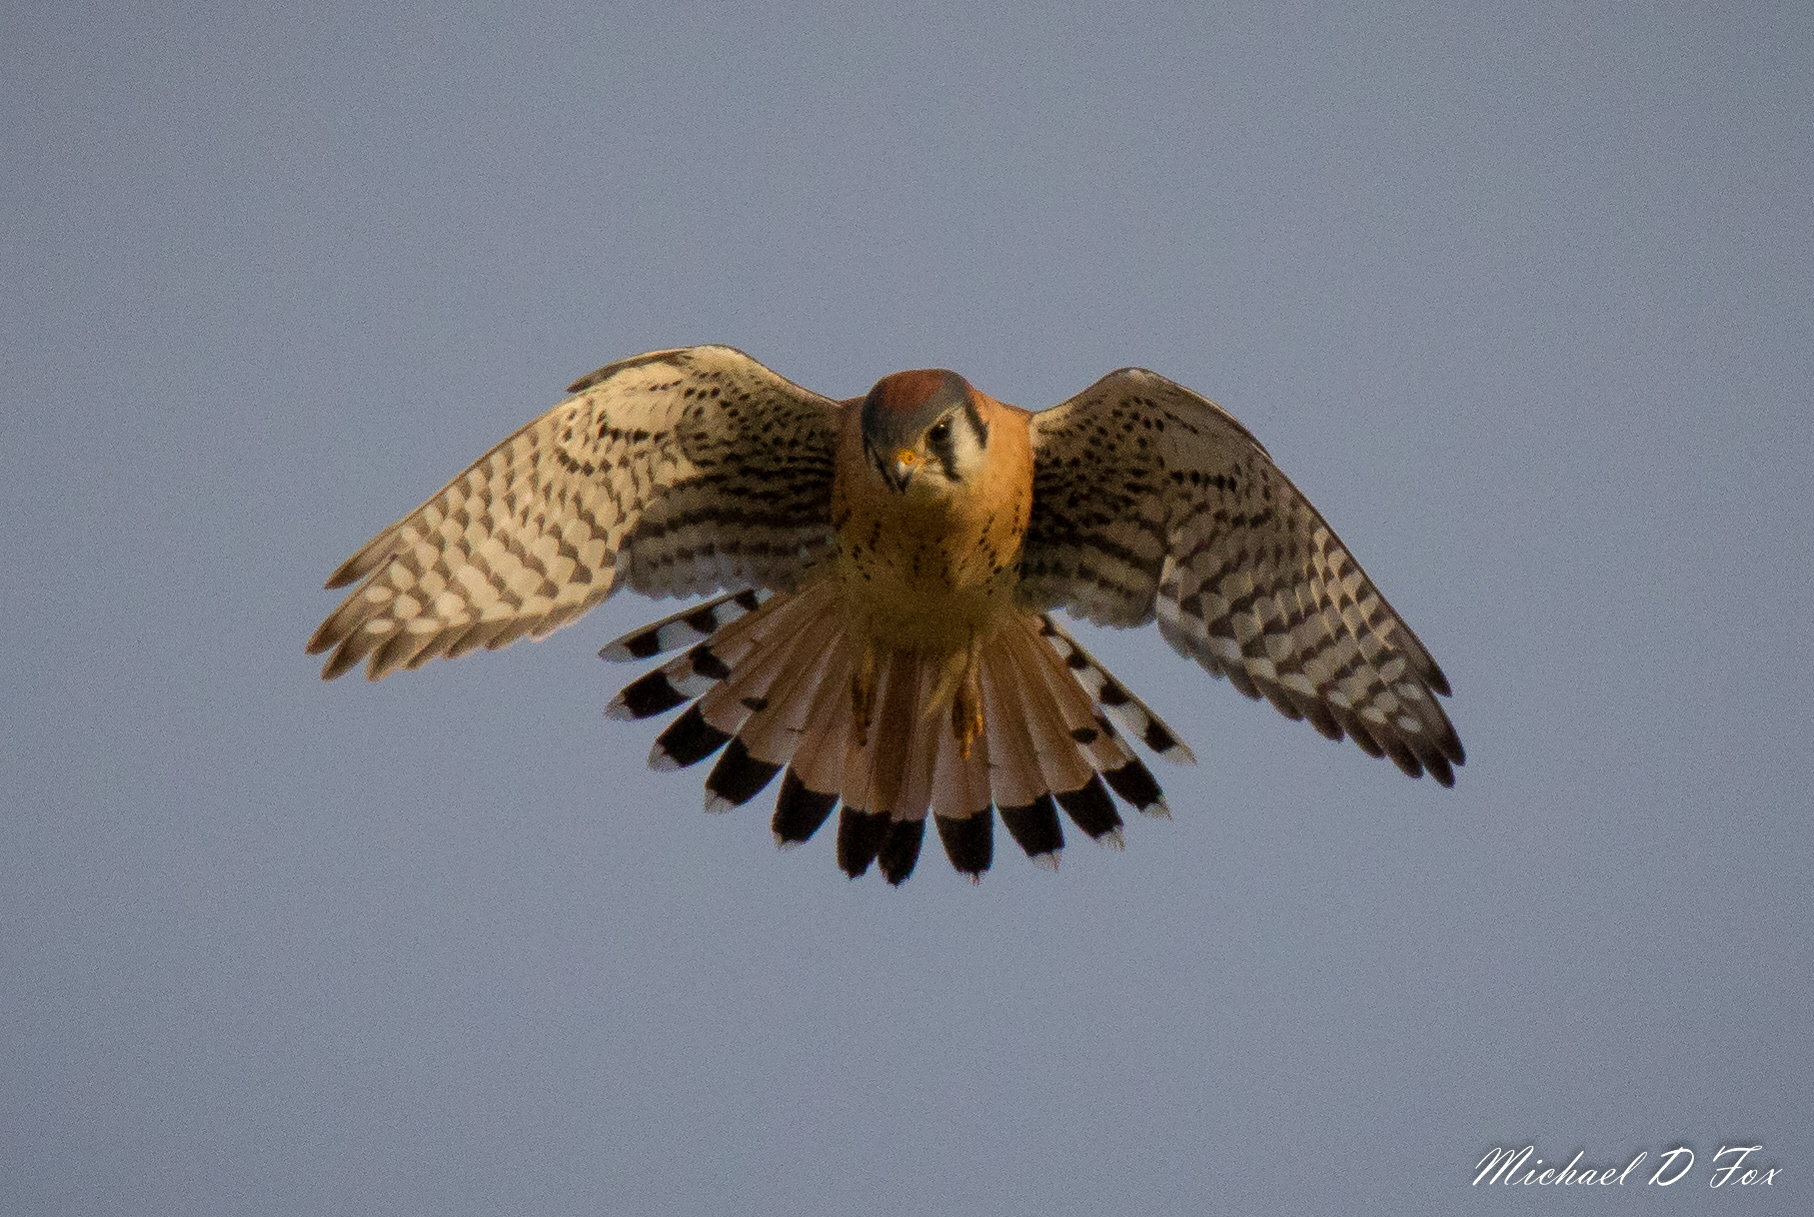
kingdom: Animalia
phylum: Chordata
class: Aves
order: Falconiformes
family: Falconidae
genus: Falco
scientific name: Falco sparverius
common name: American kestrel
